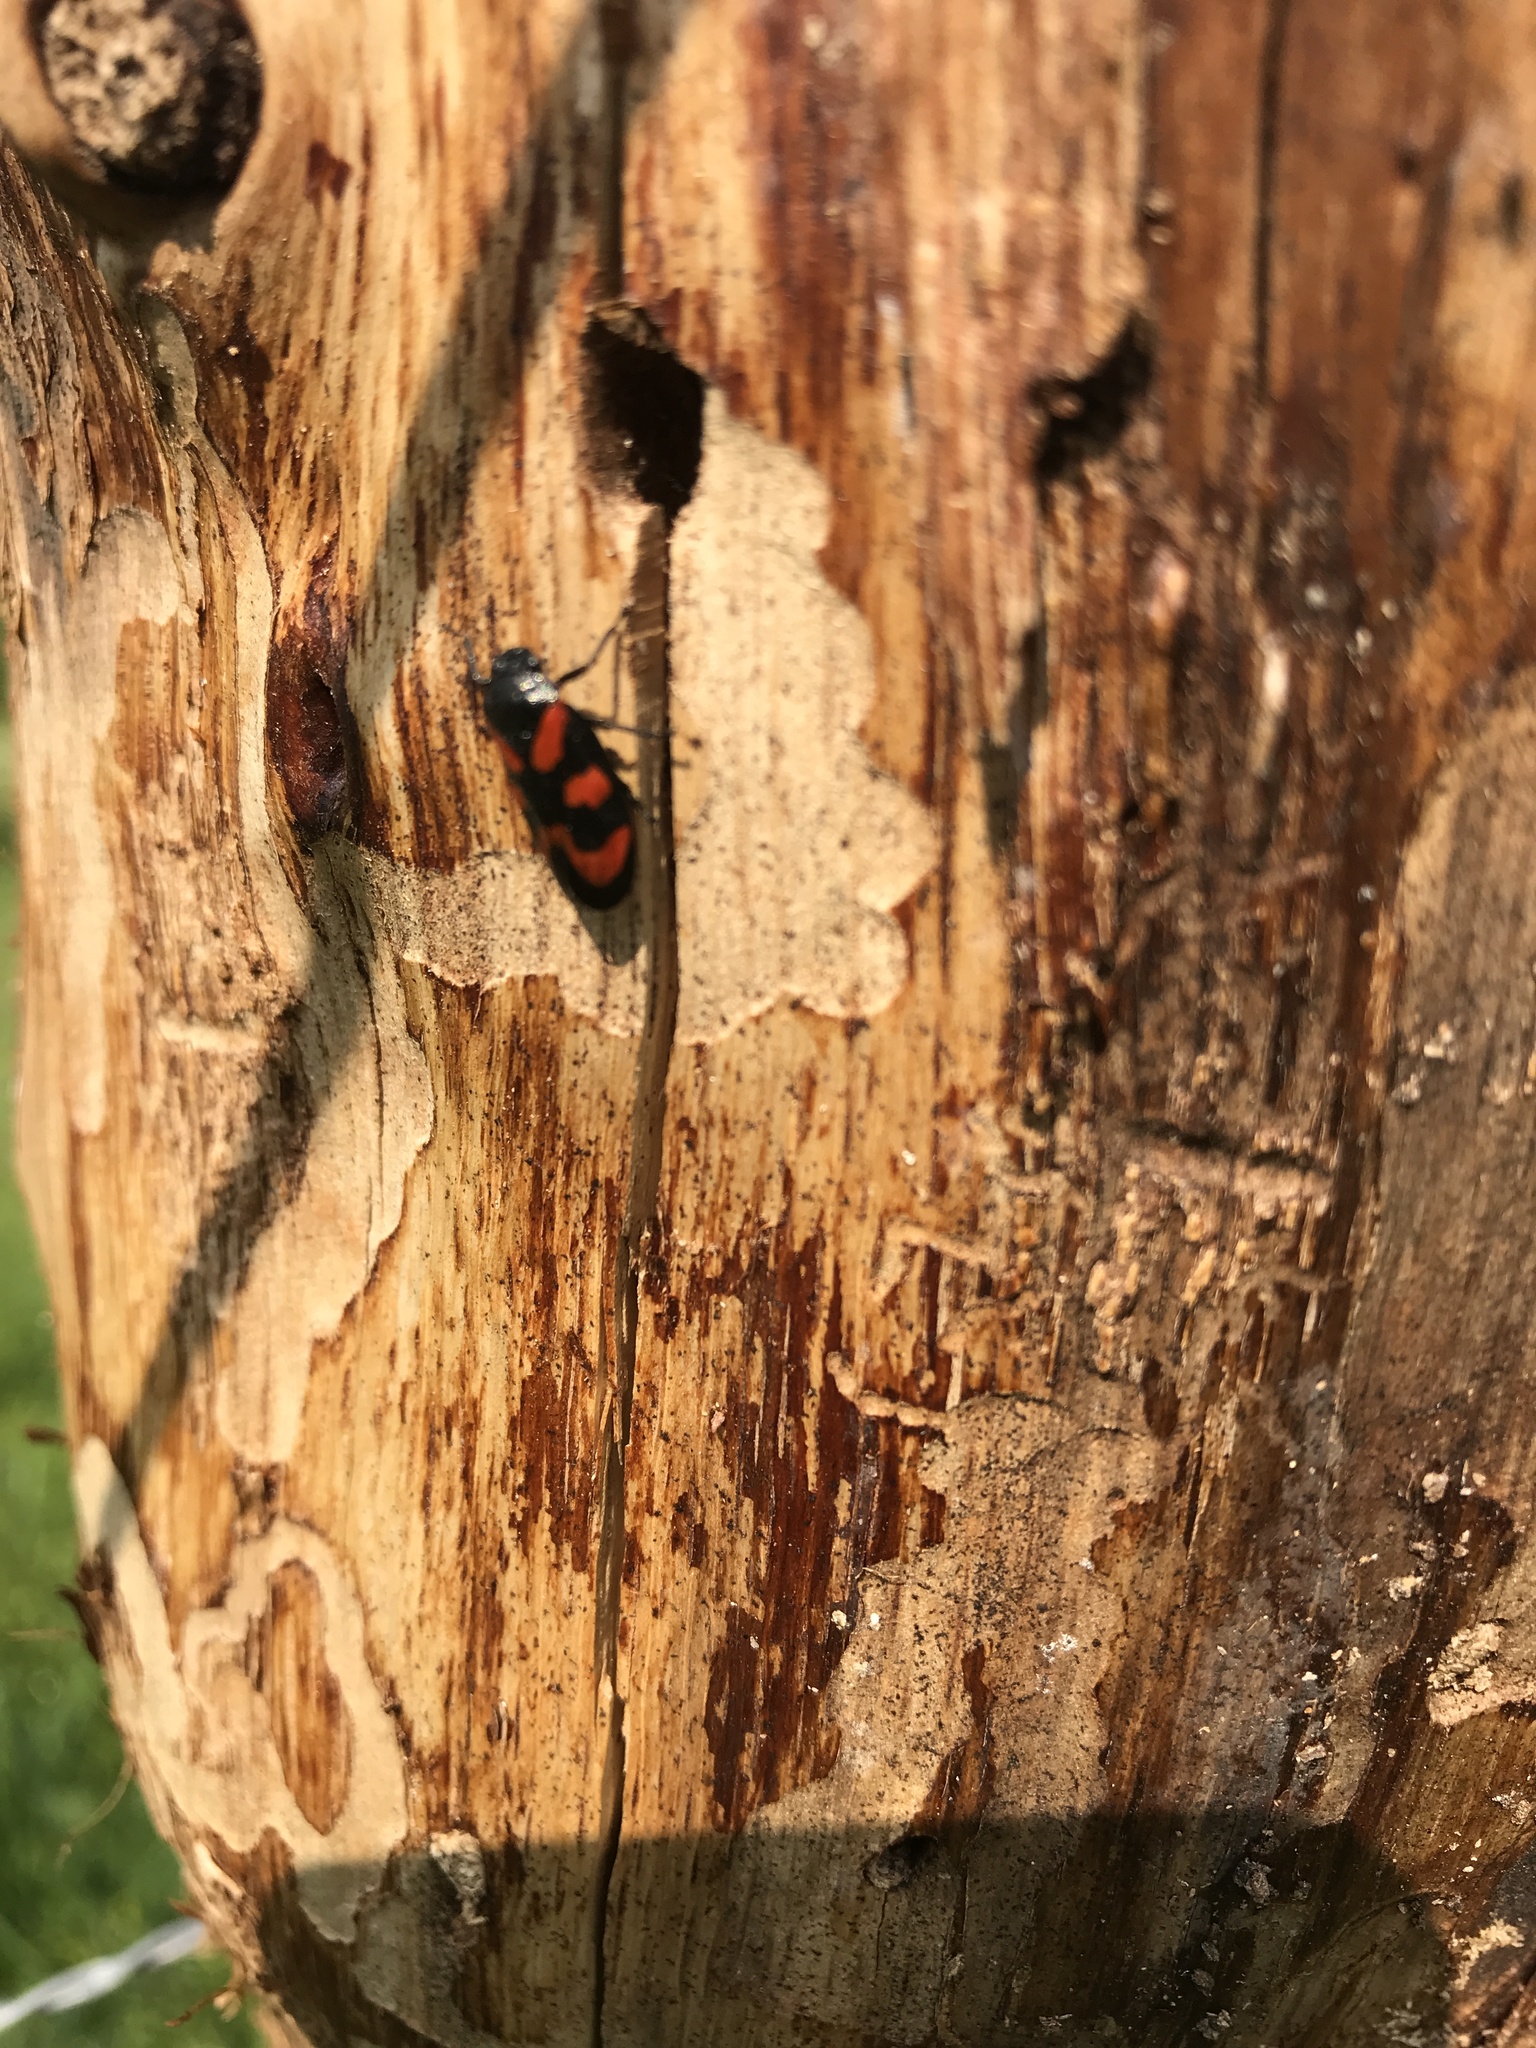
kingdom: Animalia
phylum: Arthropoda
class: Insecta
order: Hemiptera
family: Cercopidae
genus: Cercopis
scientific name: Cercopis vulnerata
